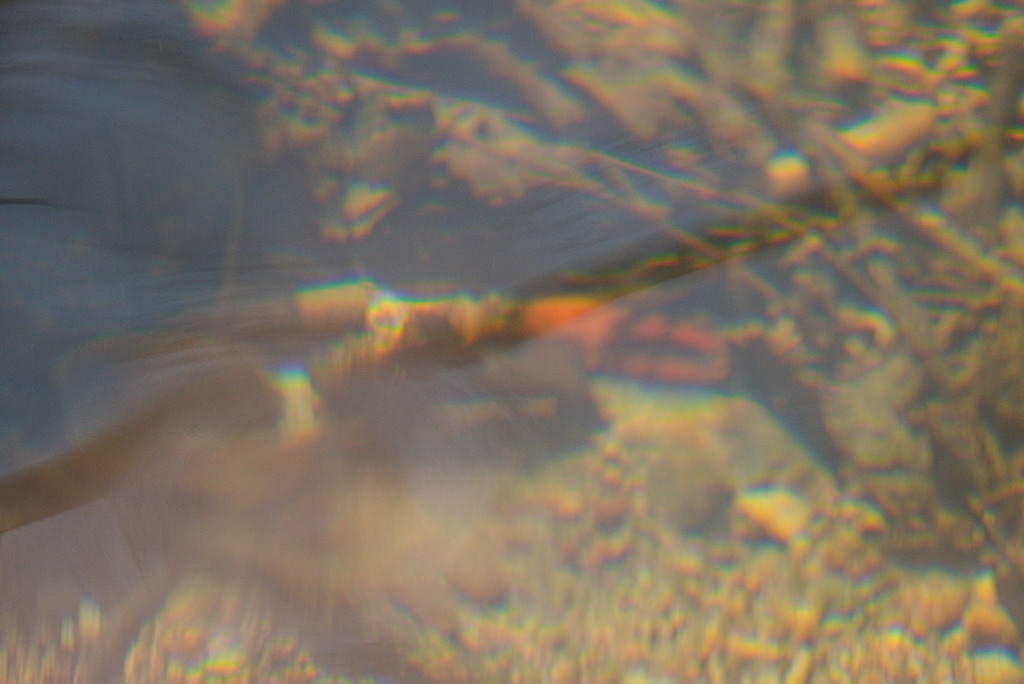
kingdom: Animalia
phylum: Arthropoda
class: Malacostraca
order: Decapoda
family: Astacidae
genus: Pacifastacus
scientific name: Pacifastacus leniusculus
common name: Signal crayfish
